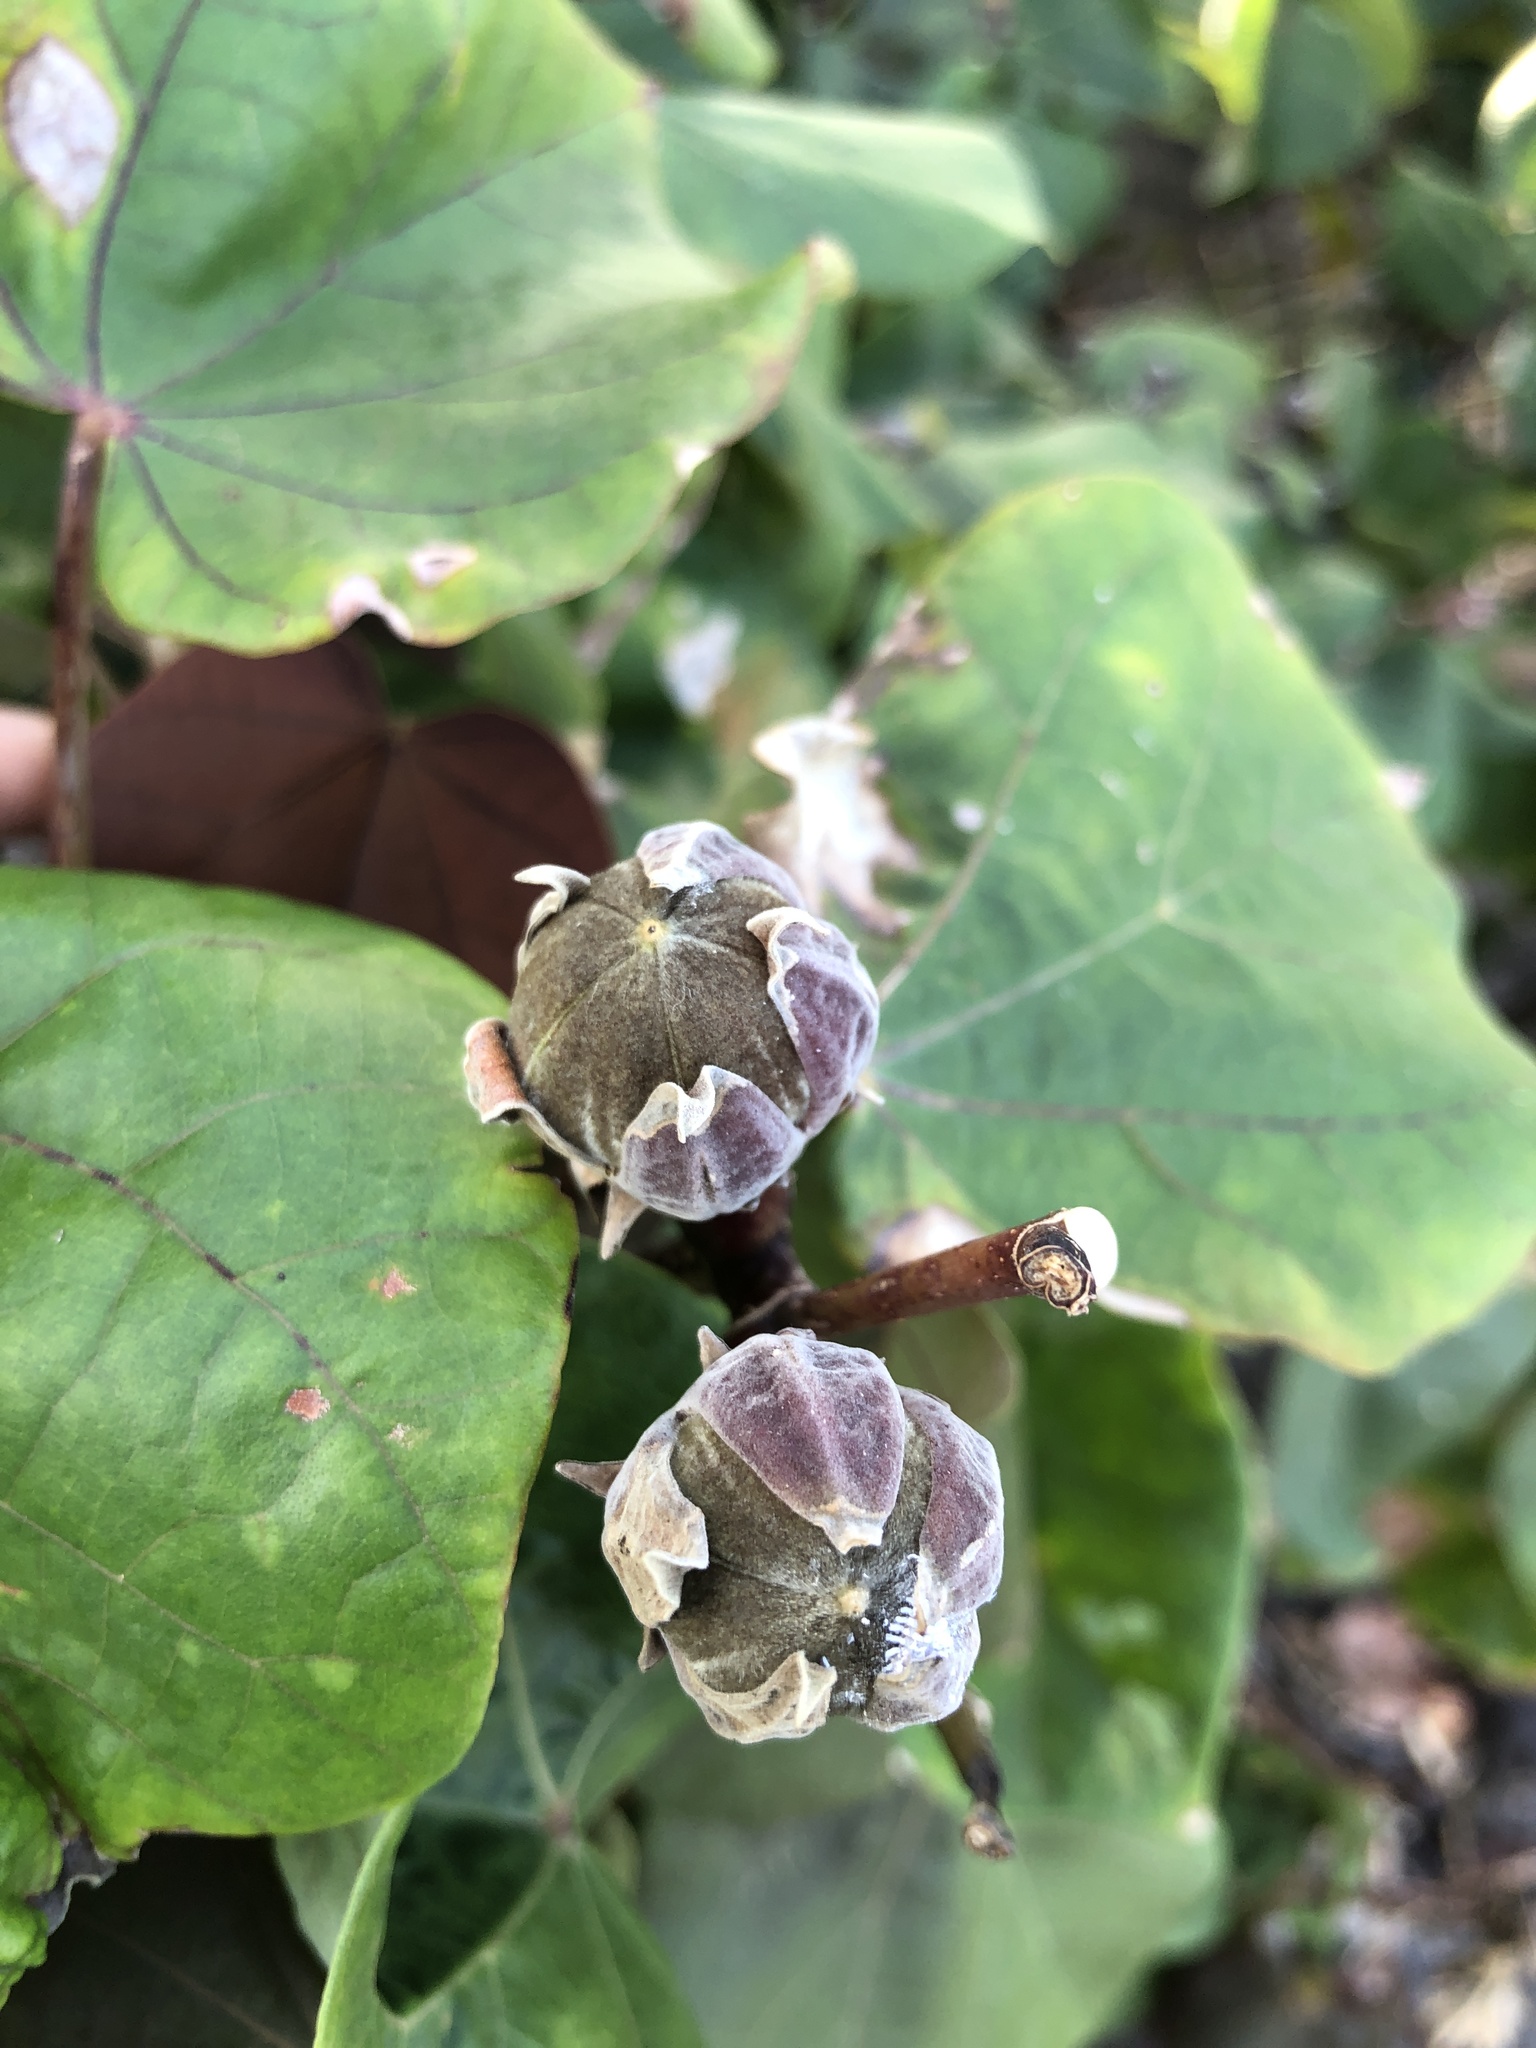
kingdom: Plantae
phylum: Tracheophyta
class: Magnoliopsida
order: Malvales
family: Malvaceae
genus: Talipariti
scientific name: Talipariti tiliaceum
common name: Sea hibiscus
